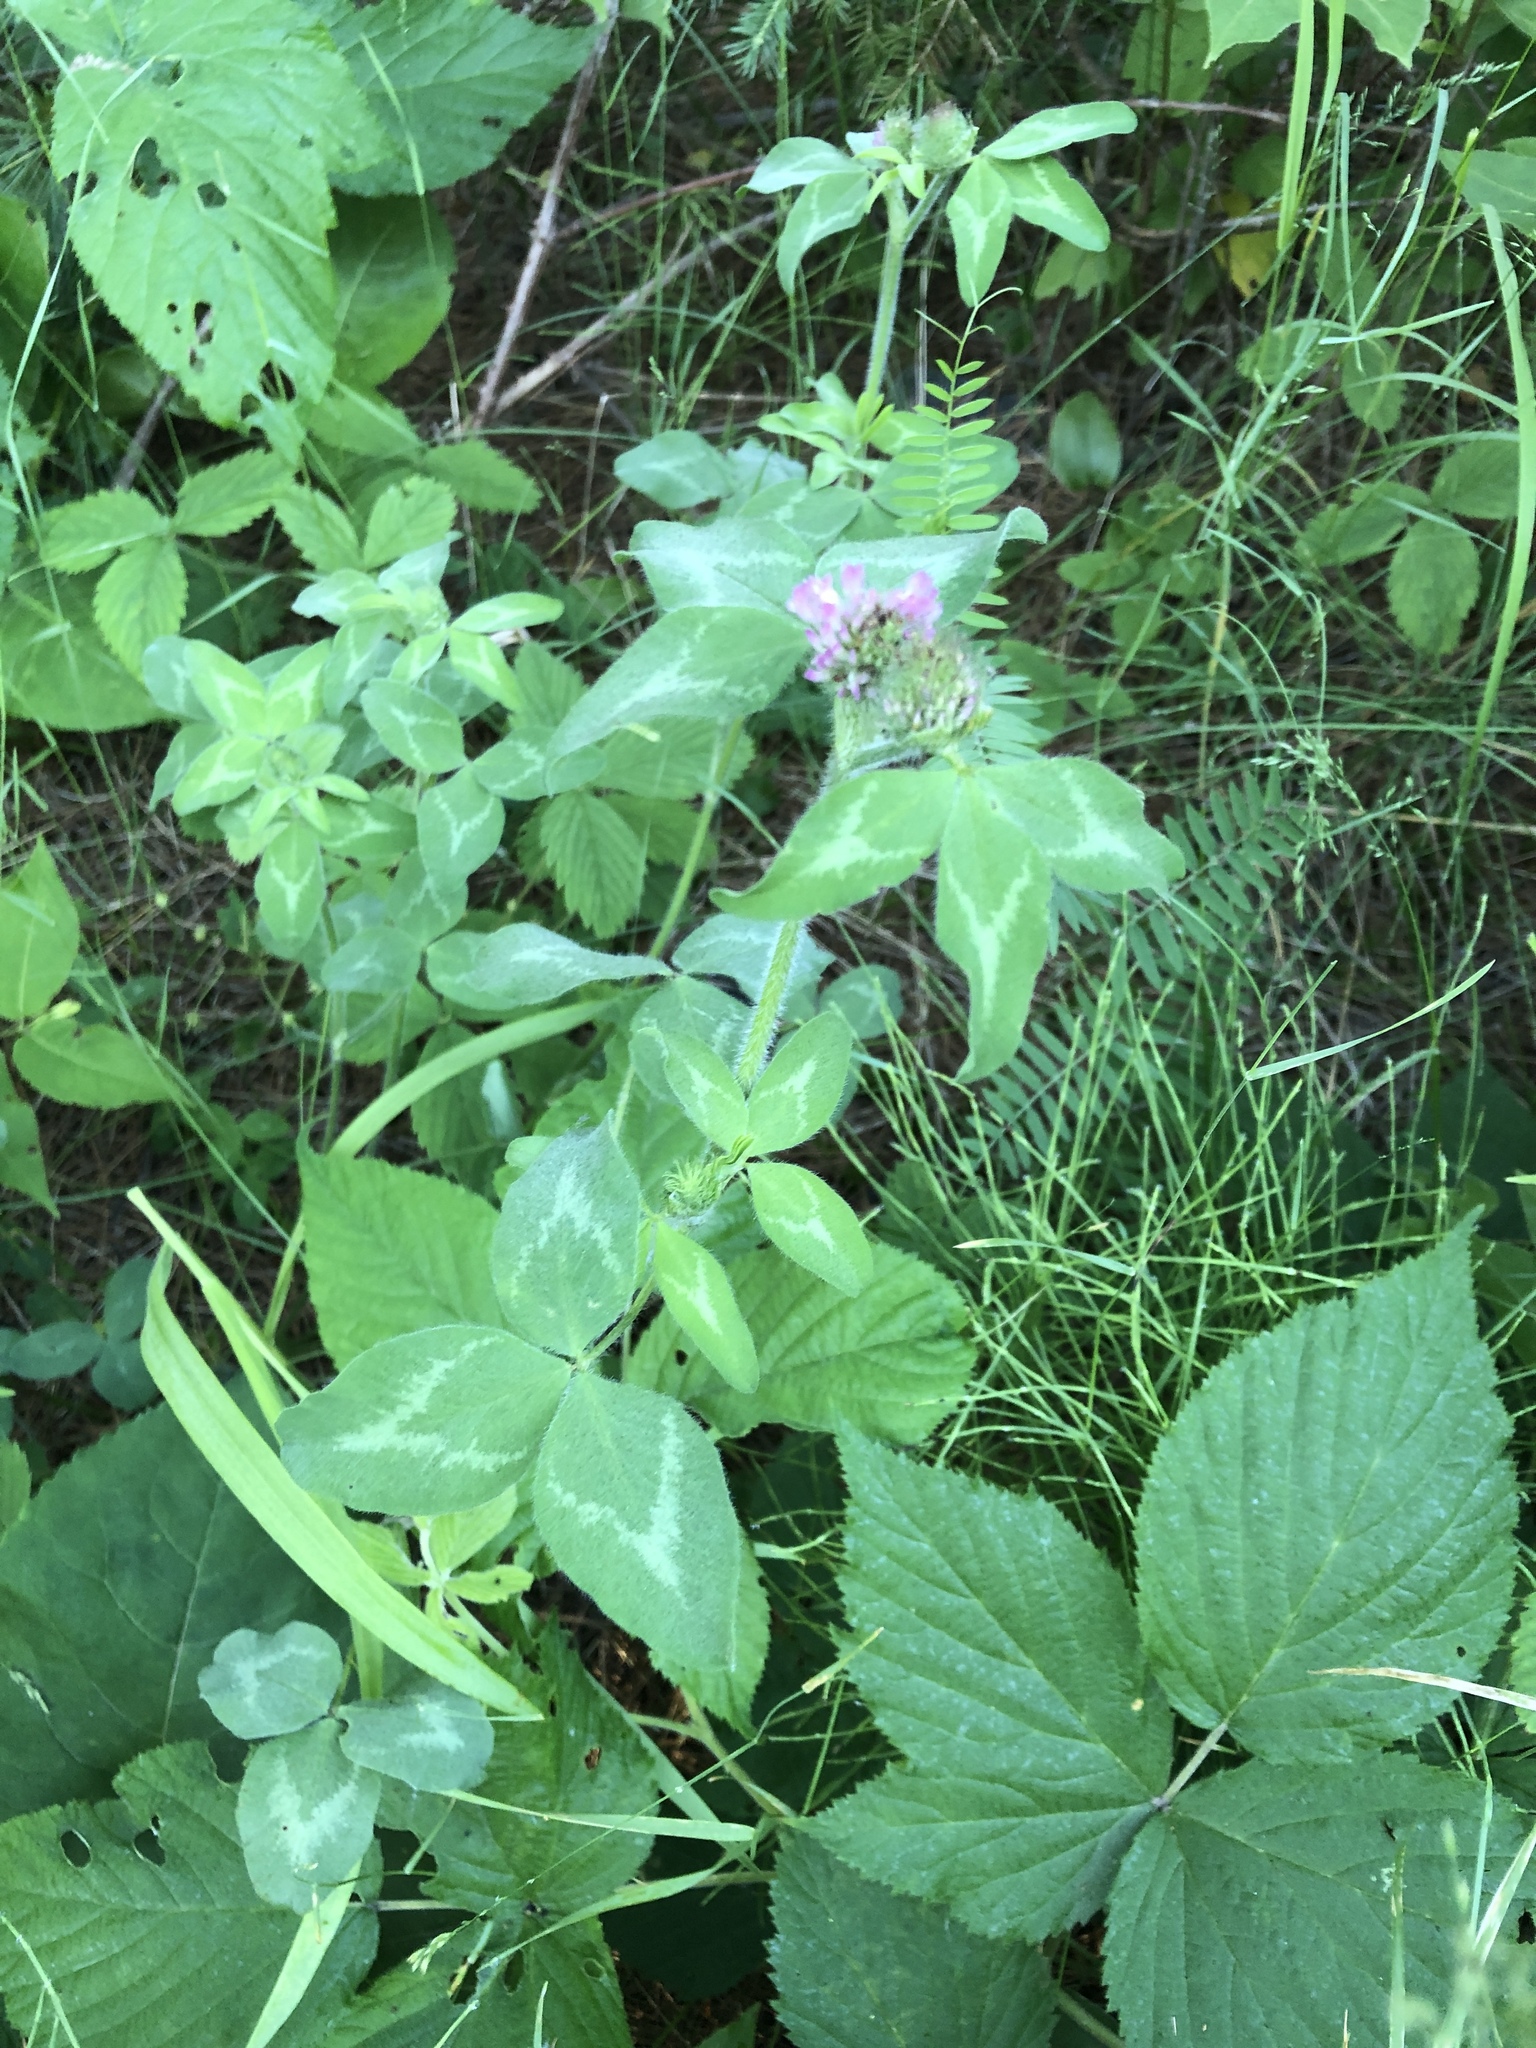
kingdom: Plantae
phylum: Tracheophyta
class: Magnoliopsida
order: Fabales
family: Fabaceae
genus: Trifolium
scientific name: Trifolium pratense
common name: Red clover
